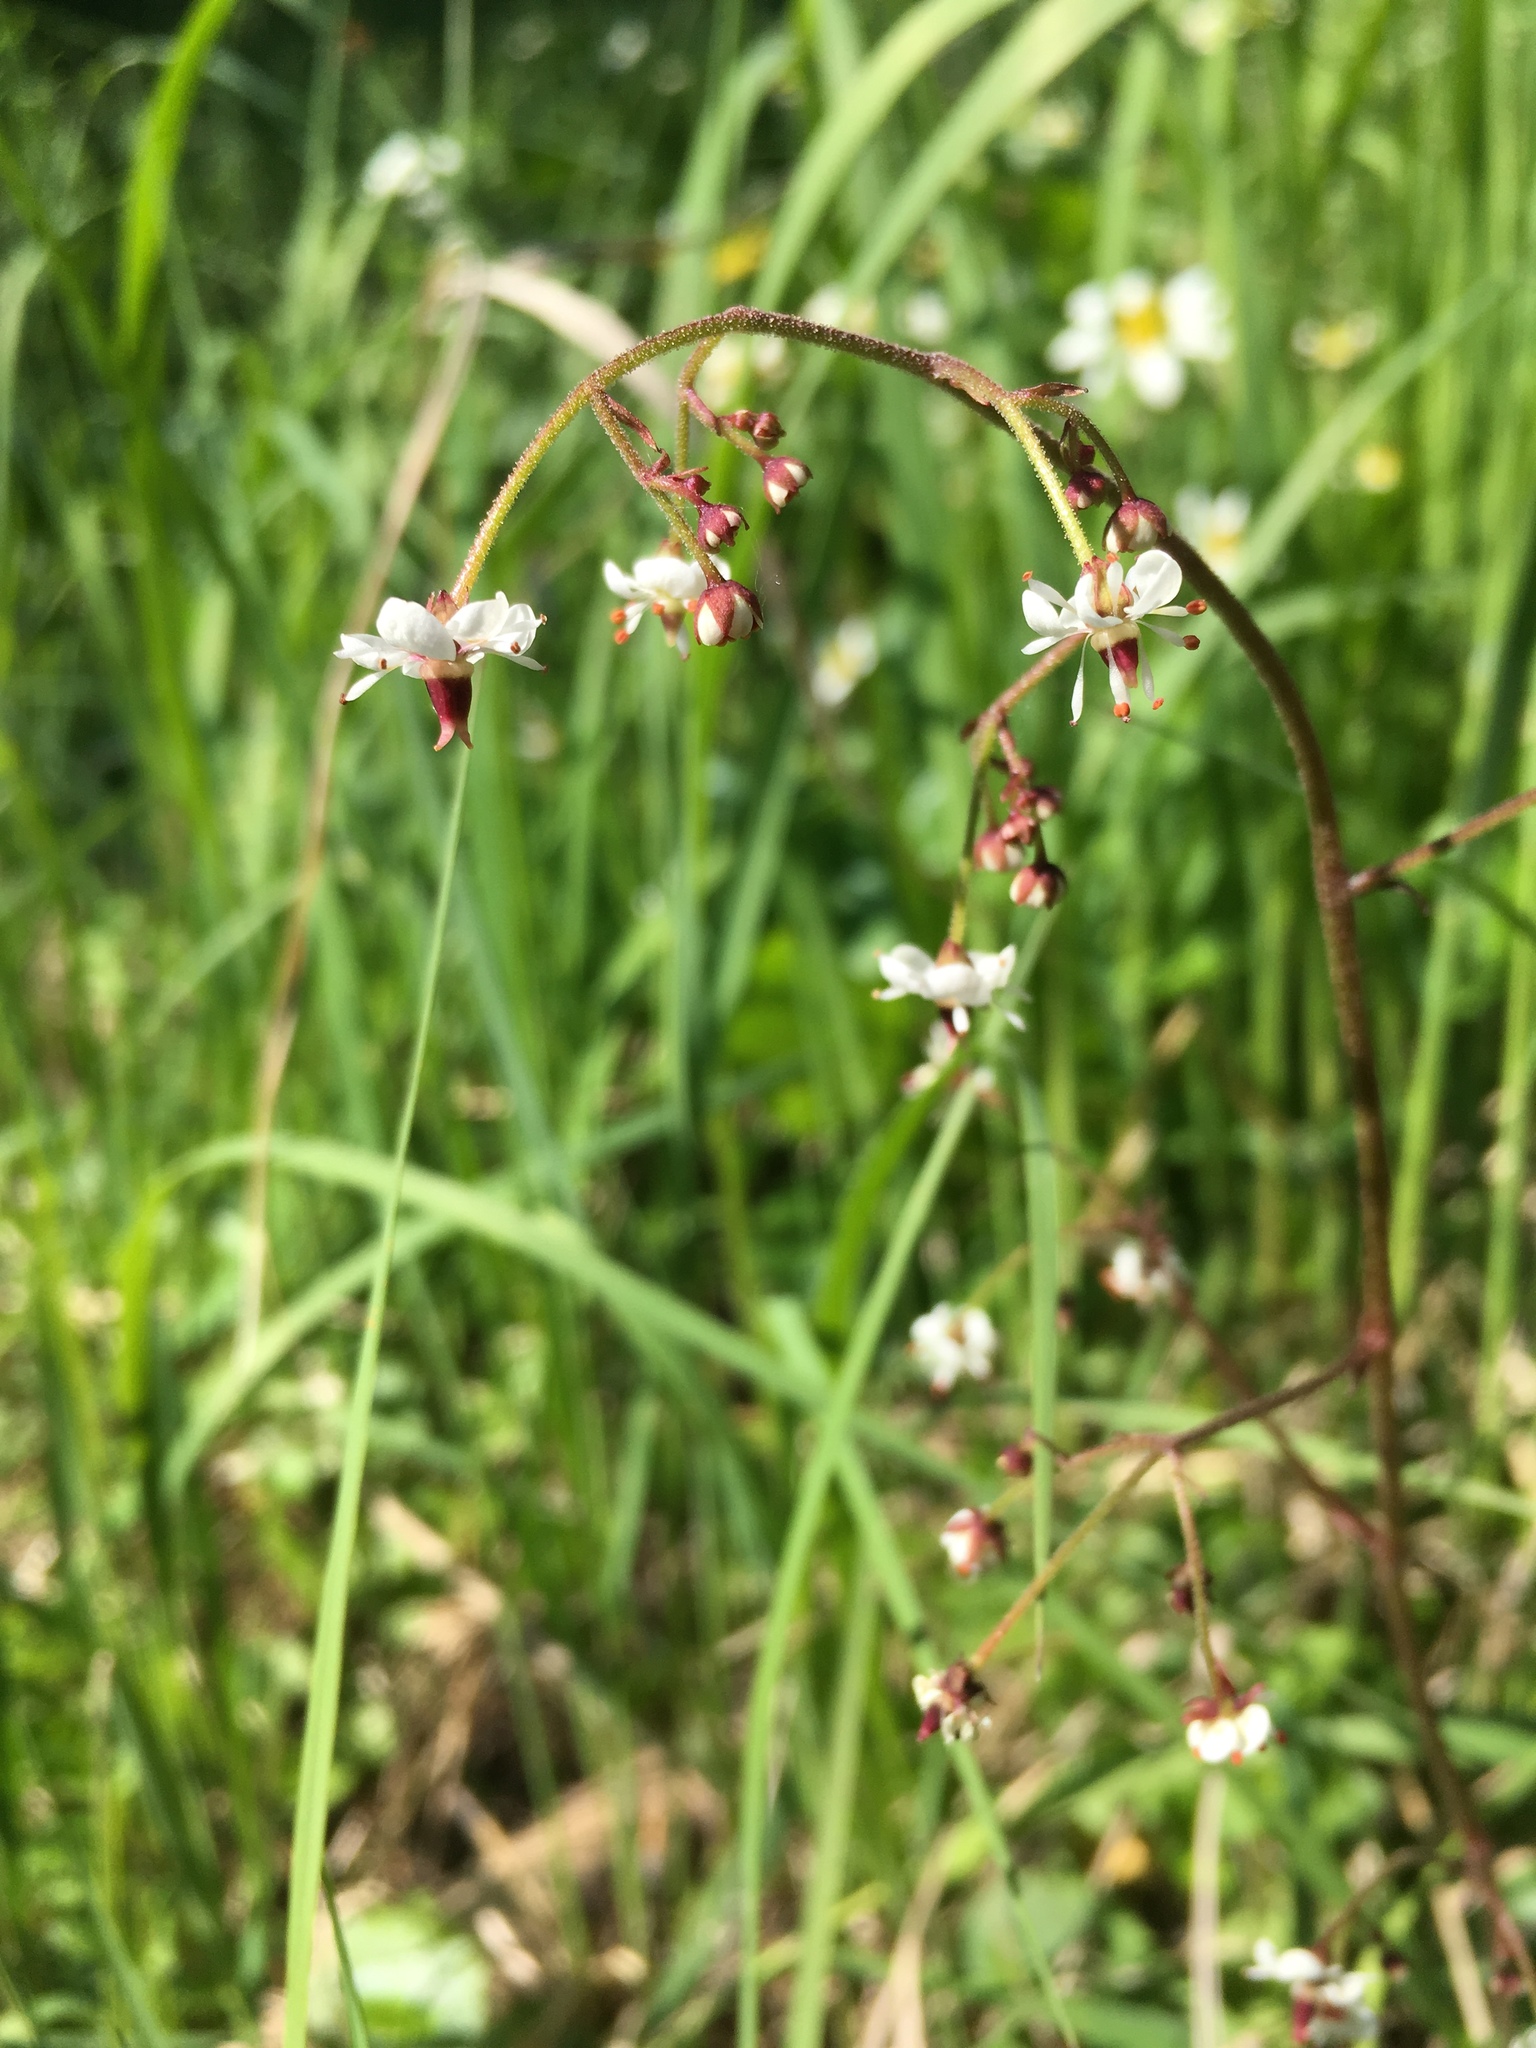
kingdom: Plantae
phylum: Tracheophyta
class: Magnoliopsida
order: Saxifragales
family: Saxifragaceae
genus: Micranthes
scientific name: Micranthes odontoloma
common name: Brook saxifrage
